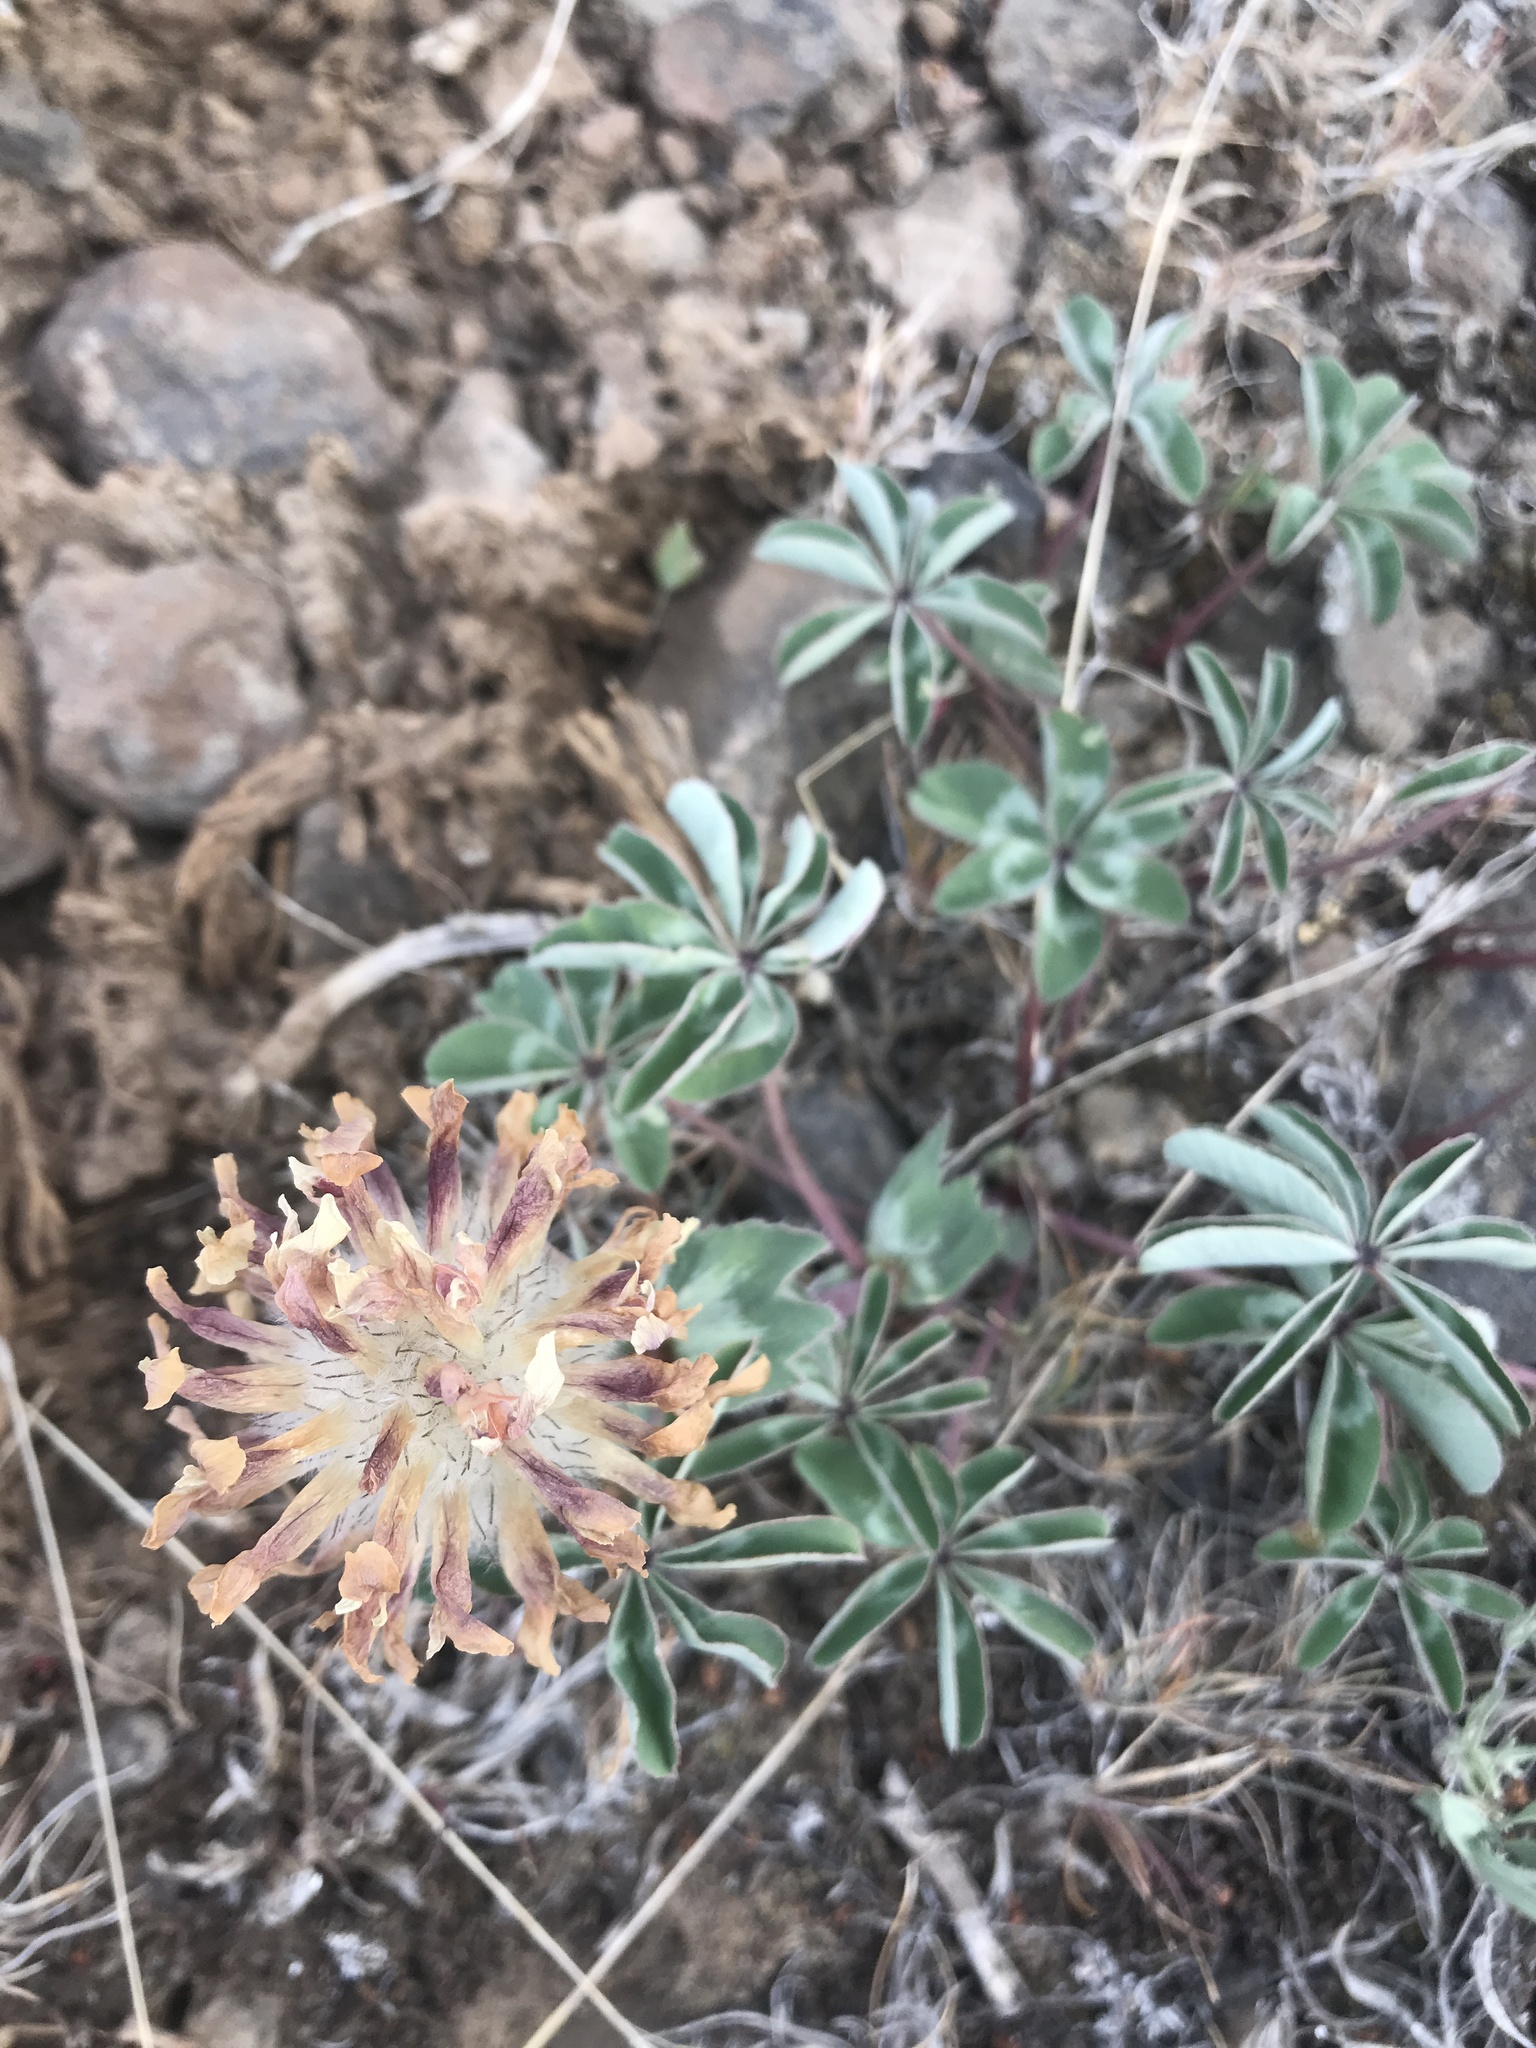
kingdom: Plantae
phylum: Tracheophyta
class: Magnoliopsida
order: Fabales
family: Fabaceae
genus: Trifolium
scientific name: Trifolium macrocephalum
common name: Large-head clover
